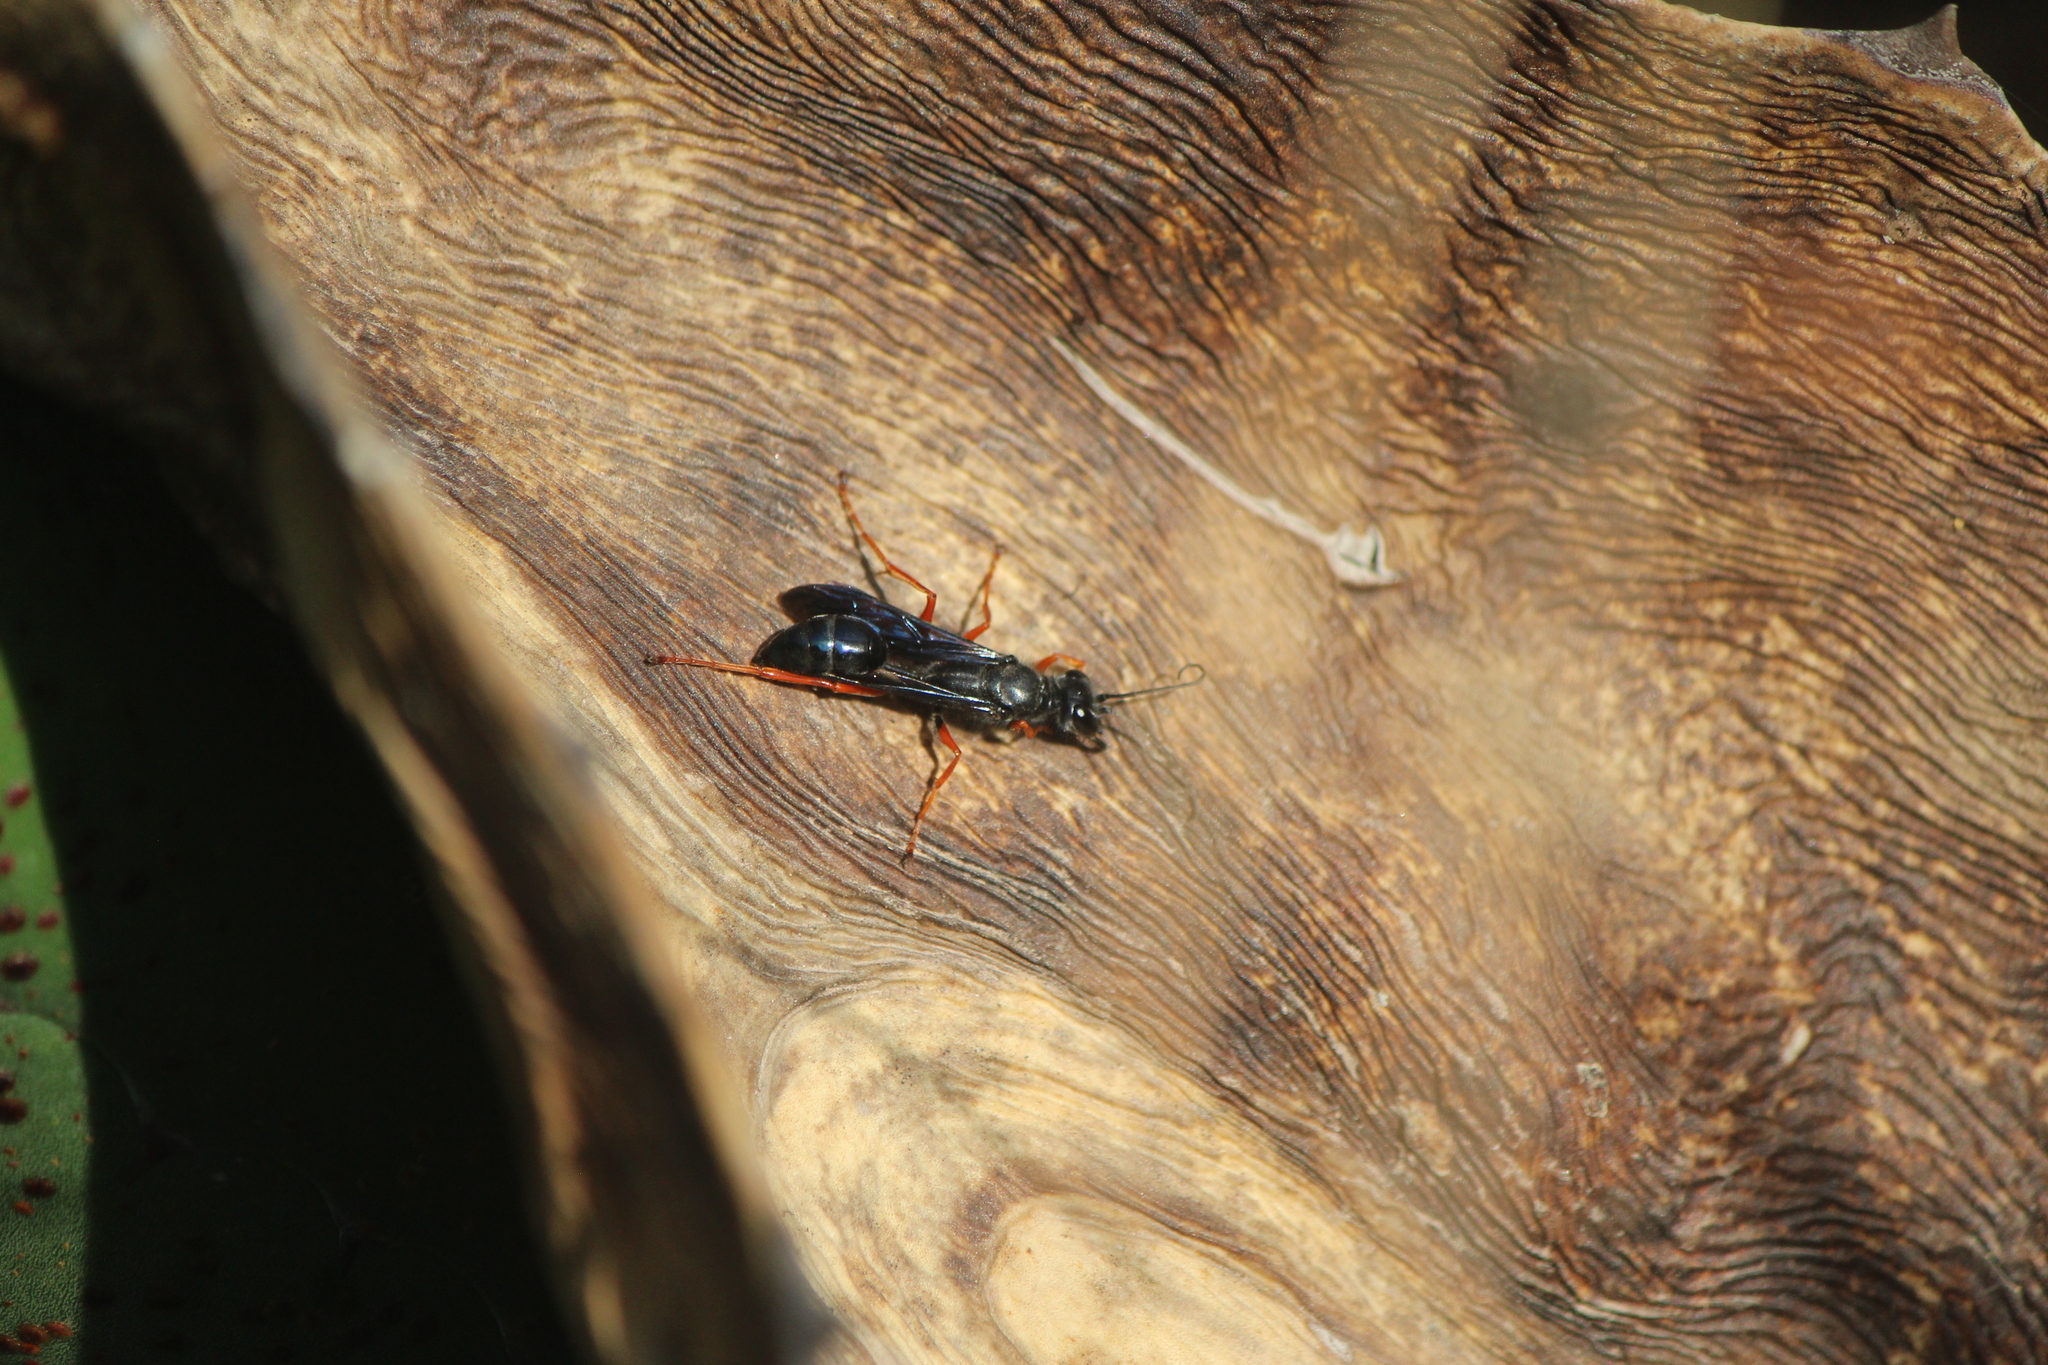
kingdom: Animalia
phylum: Arthropoda
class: Insecta
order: Hymenoptera
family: Sphecidae
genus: Podium
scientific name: Podium rufipes
